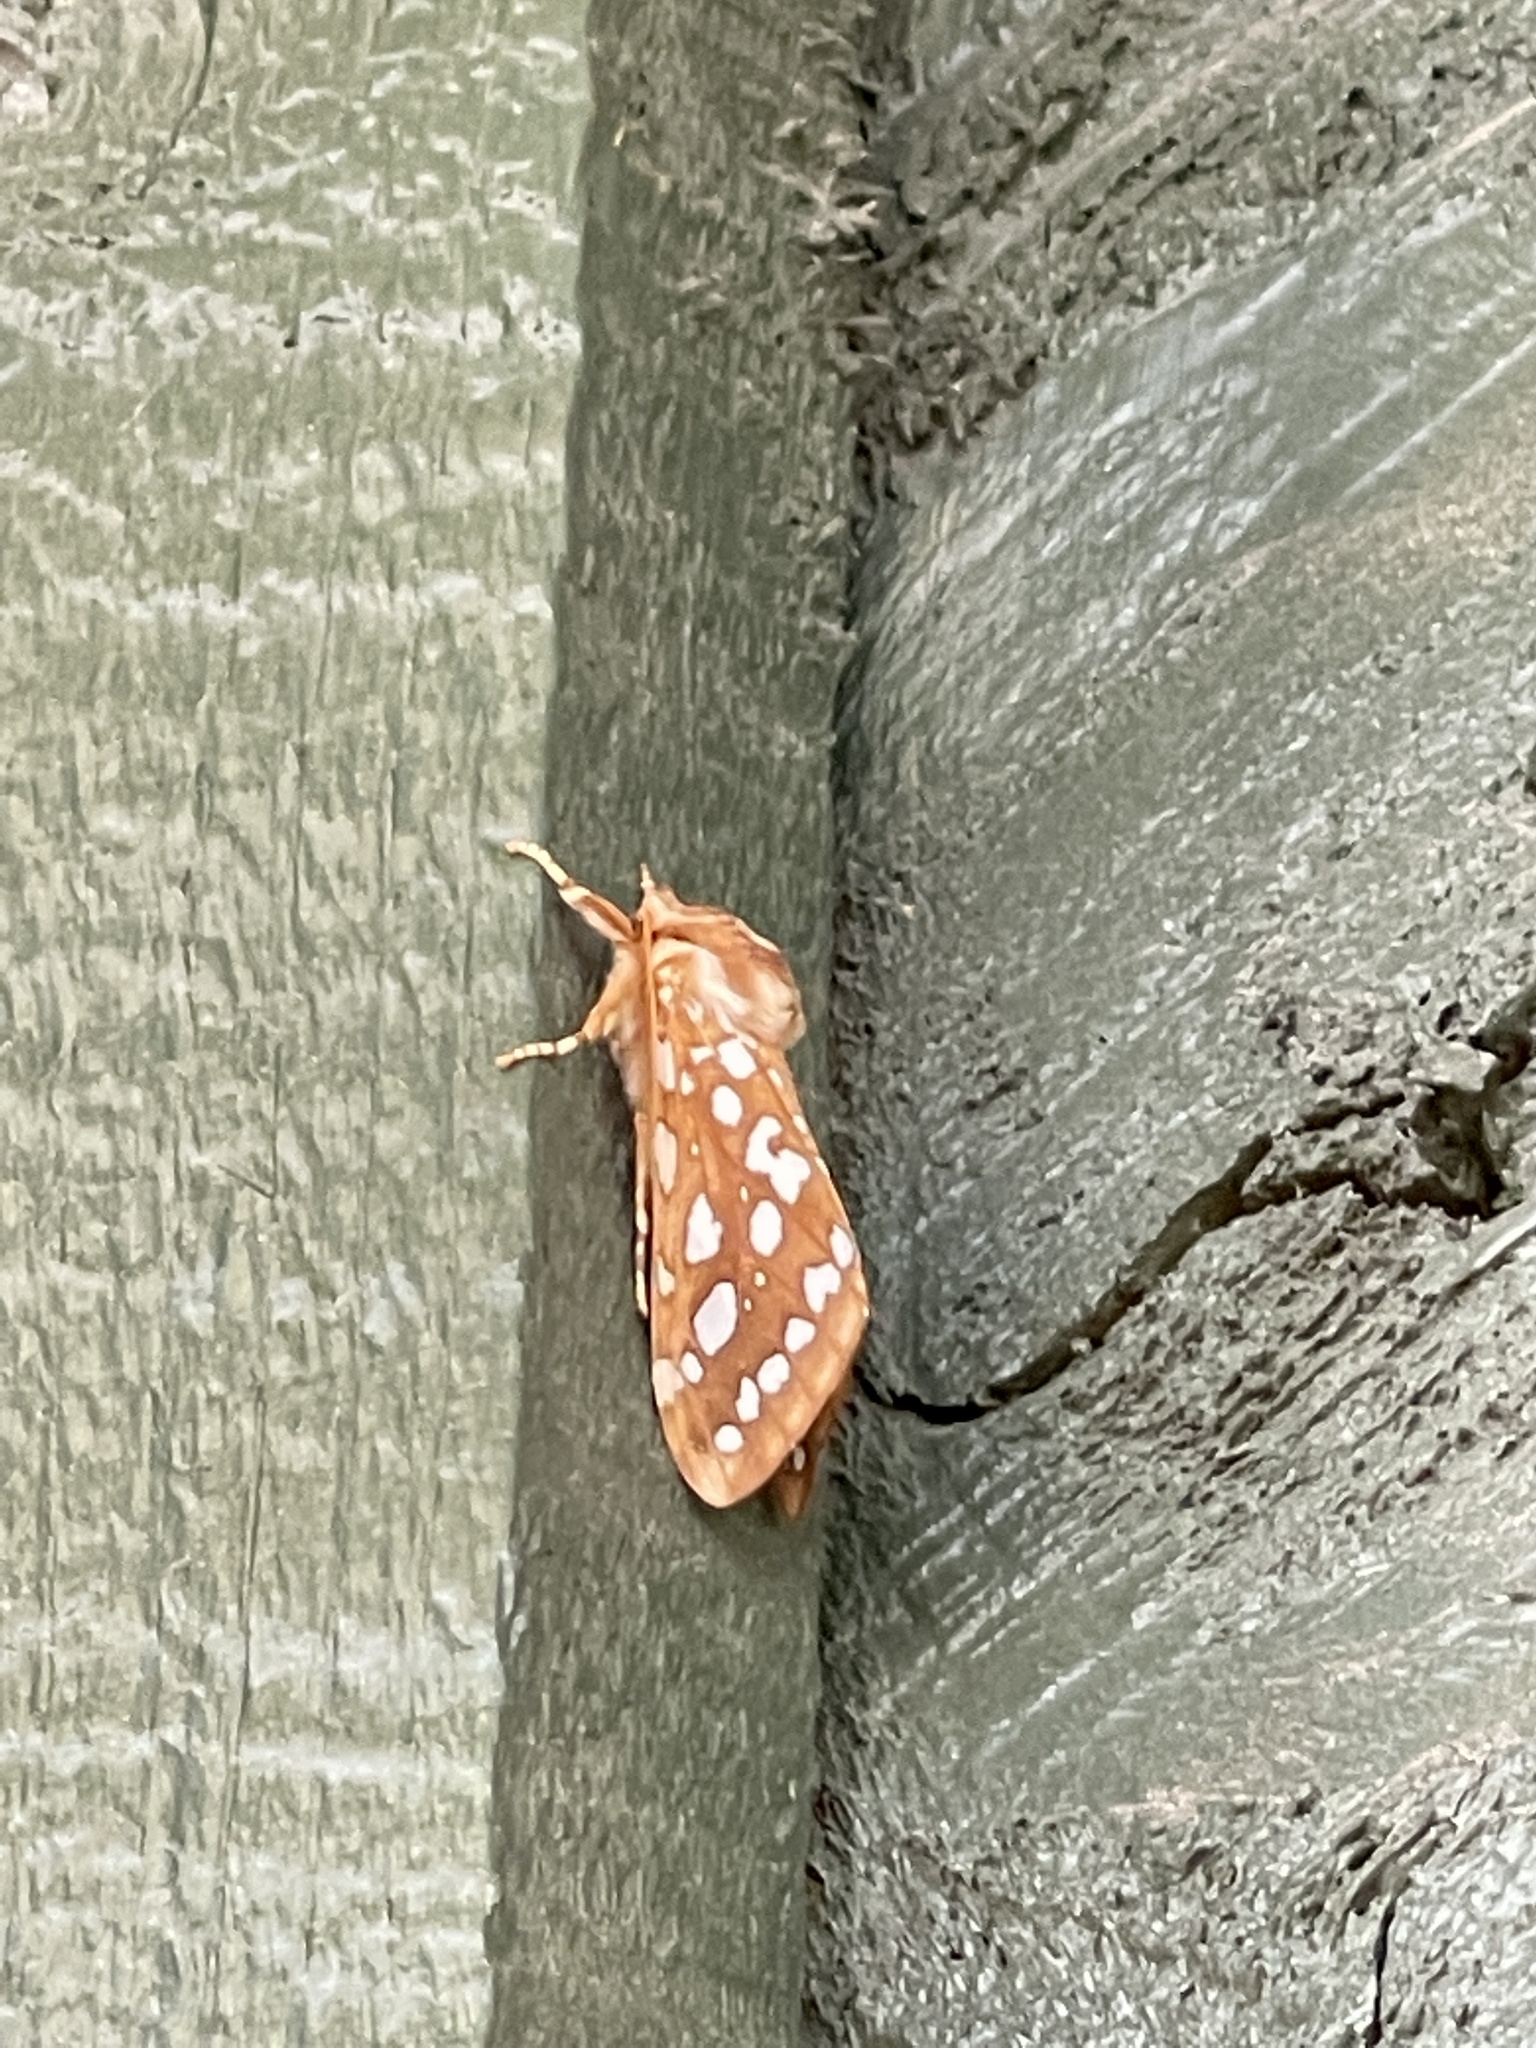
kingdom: Animalia
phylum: Arthropoda
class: Insecta
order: Lepidoptera
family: Erebidae
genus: Lophocampa
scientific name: Lophocampa argentata
